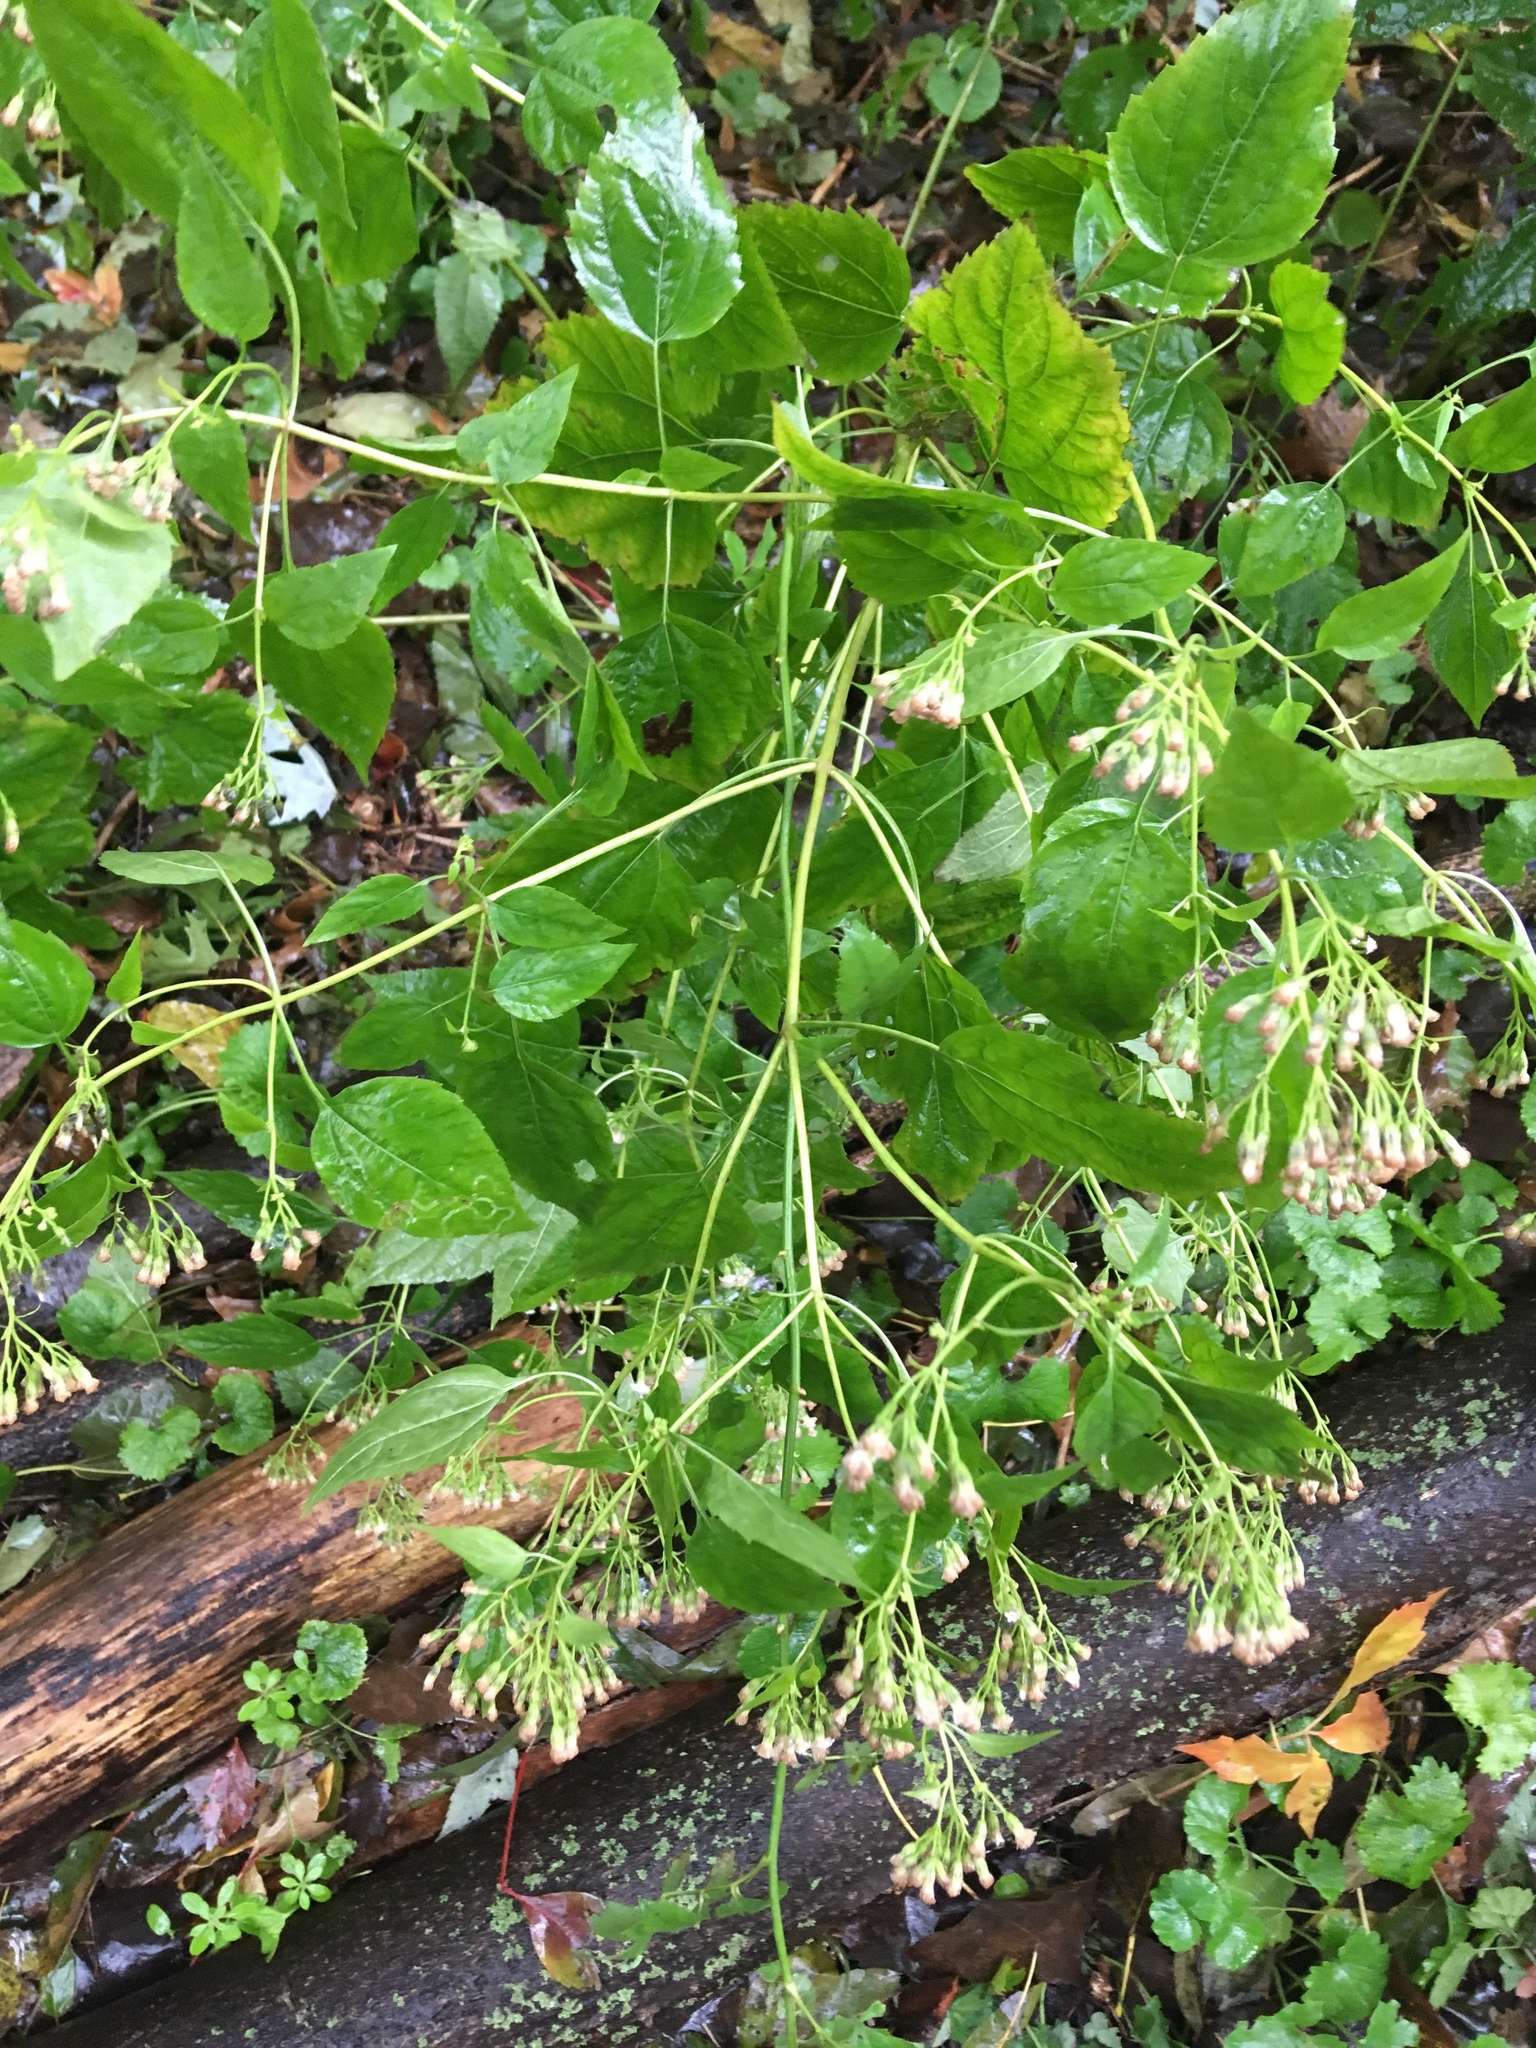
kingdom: Plantae
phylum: Tracheophyta
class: Magnoliopsida
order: Asterales
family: Asteraceae
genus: Ageratina
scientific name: Ageratina altissima
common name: White snakeroot
